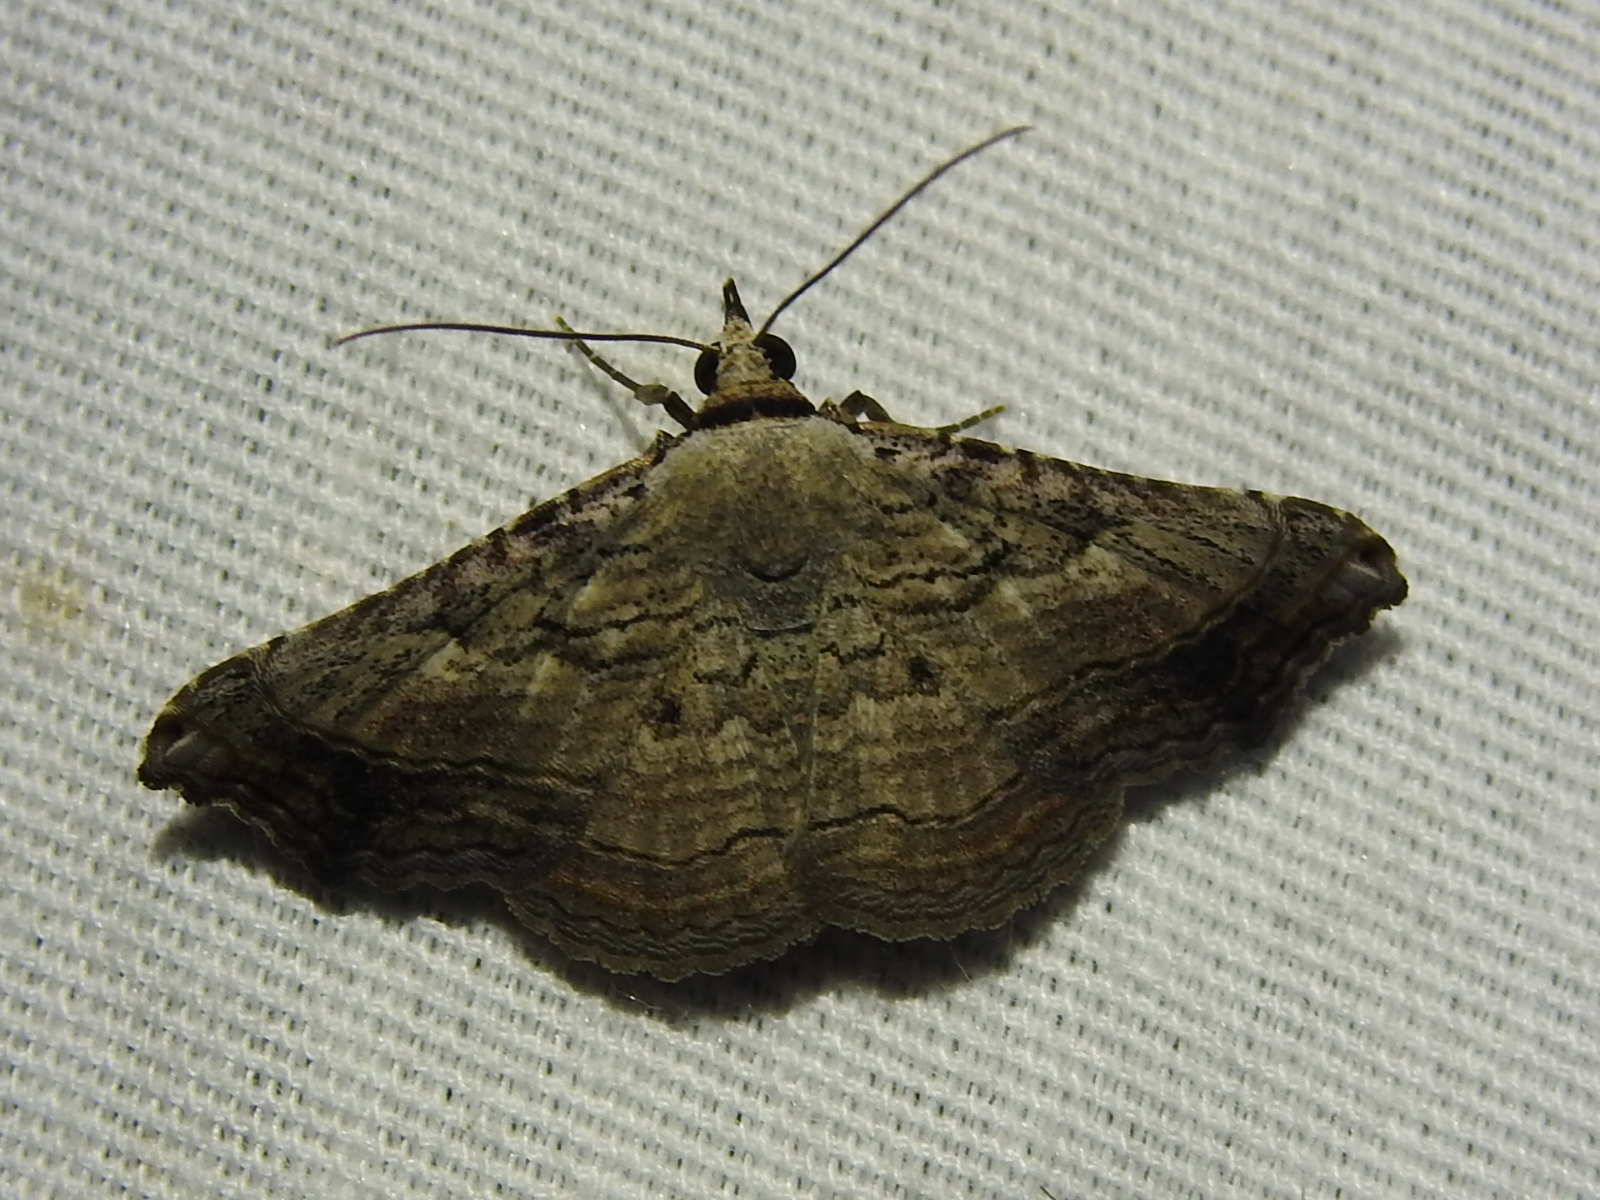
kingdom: Animalia
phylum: Arthropoda
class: Insecta
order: Lepidoptera
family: Erebidae
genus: Tyrissa
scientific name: Tyrissa multilinea
